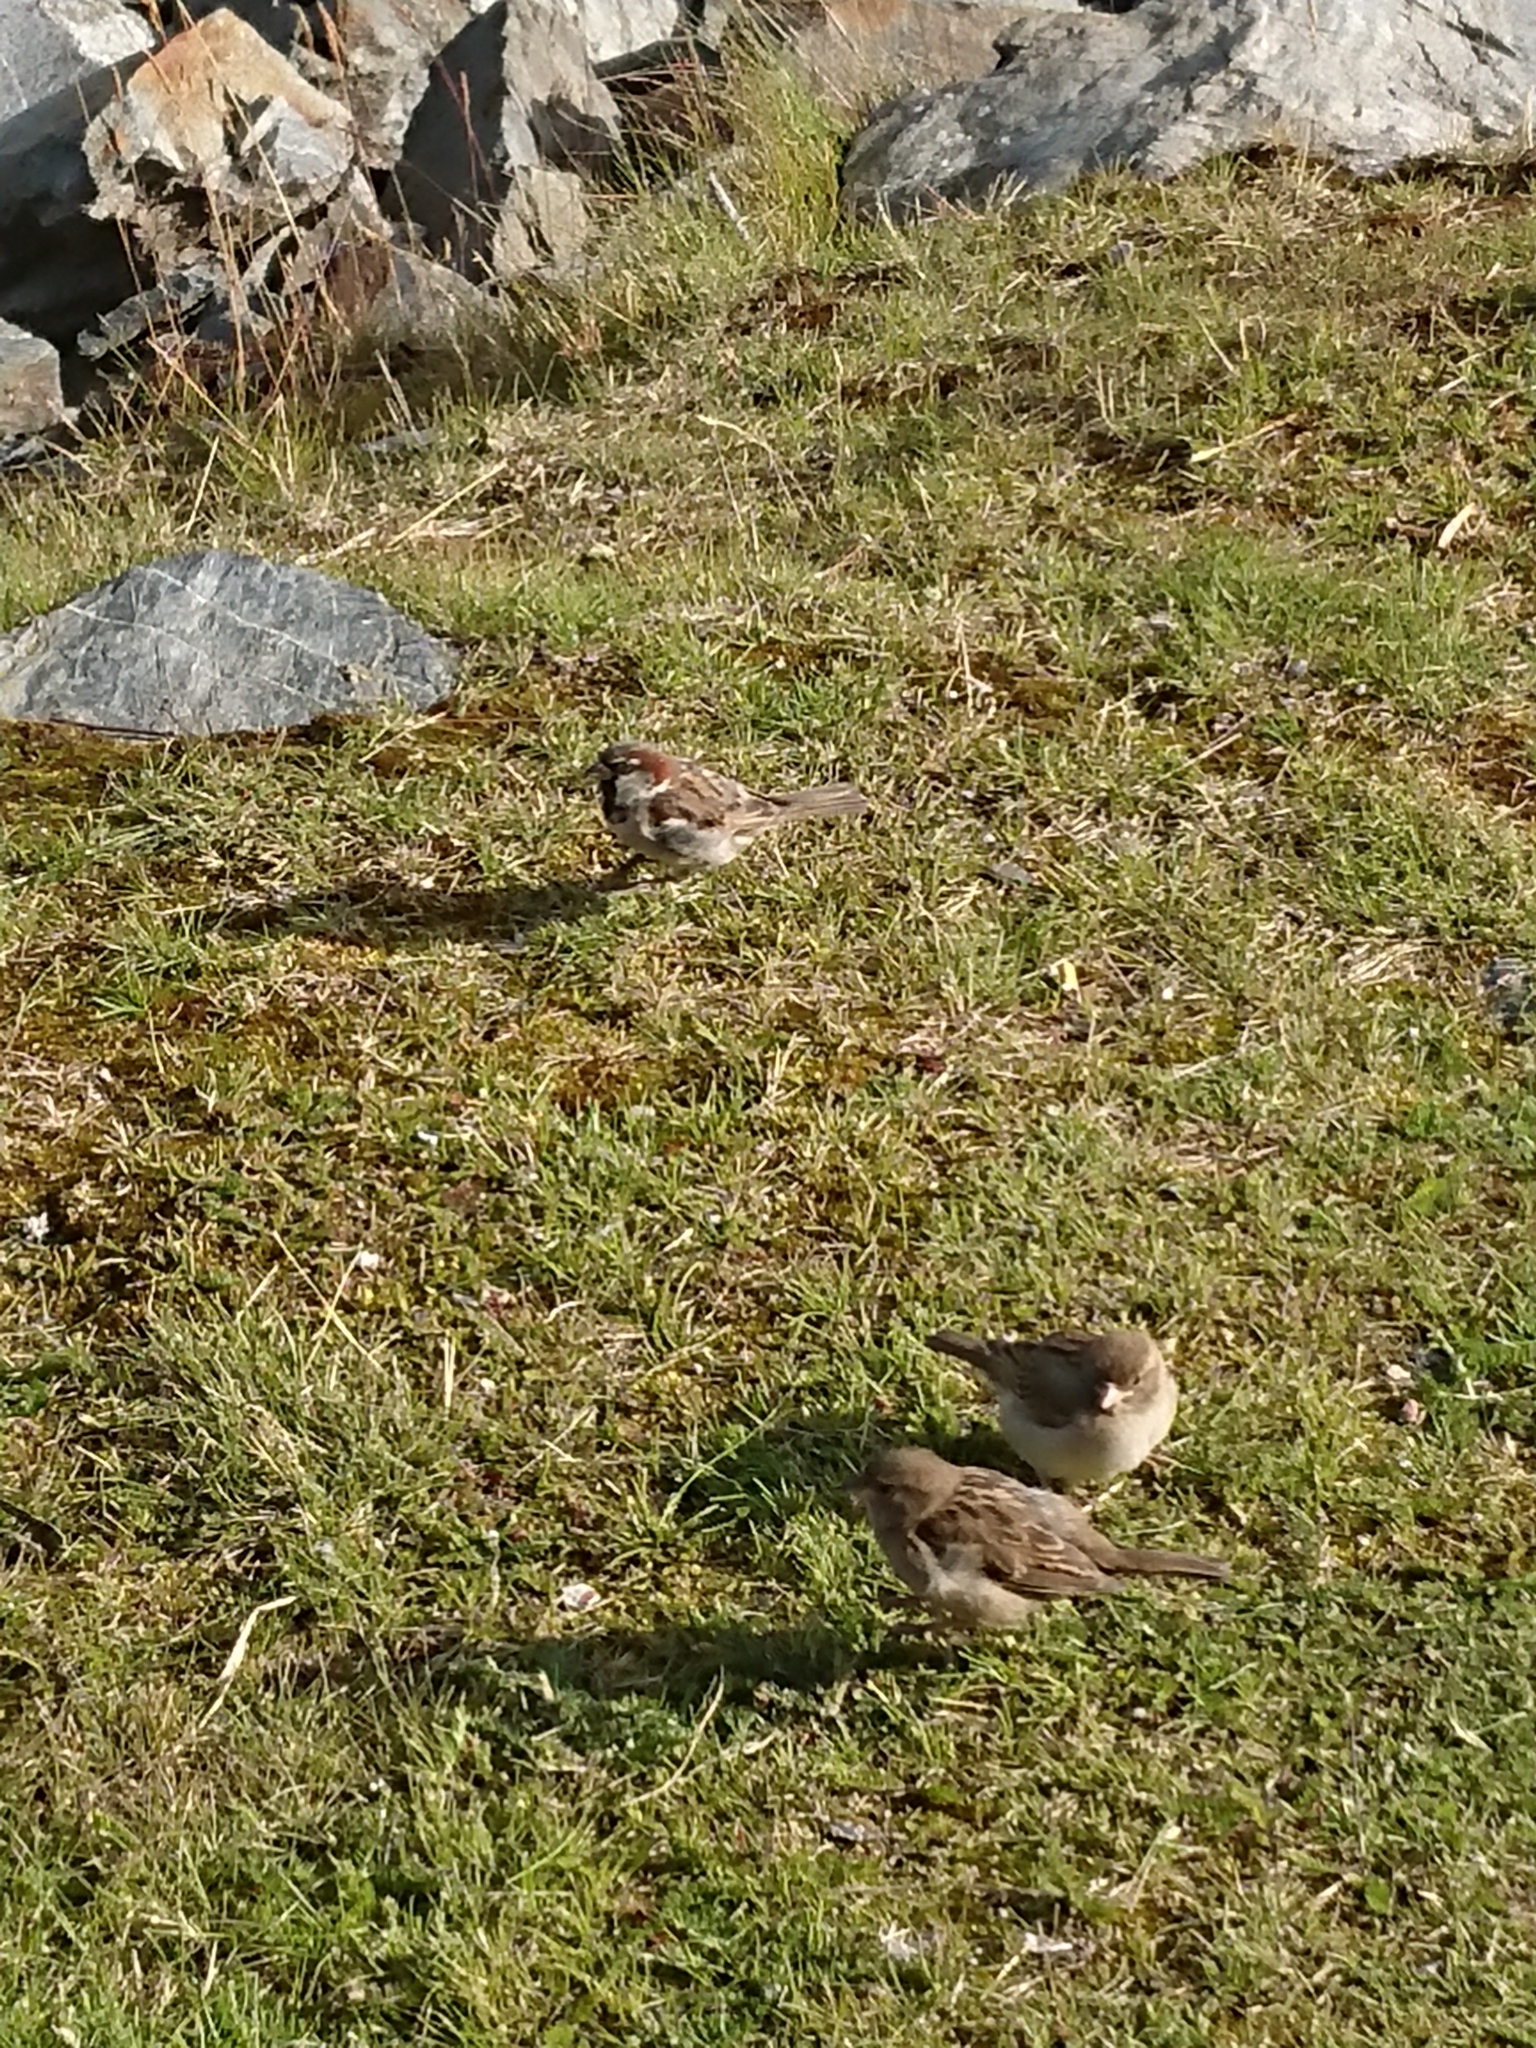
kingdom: Animalia
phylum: Chordata
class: Aves
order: Passeriformes
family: Passeridae
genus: Passer
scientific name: Passer domesticus
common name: House sparrow
